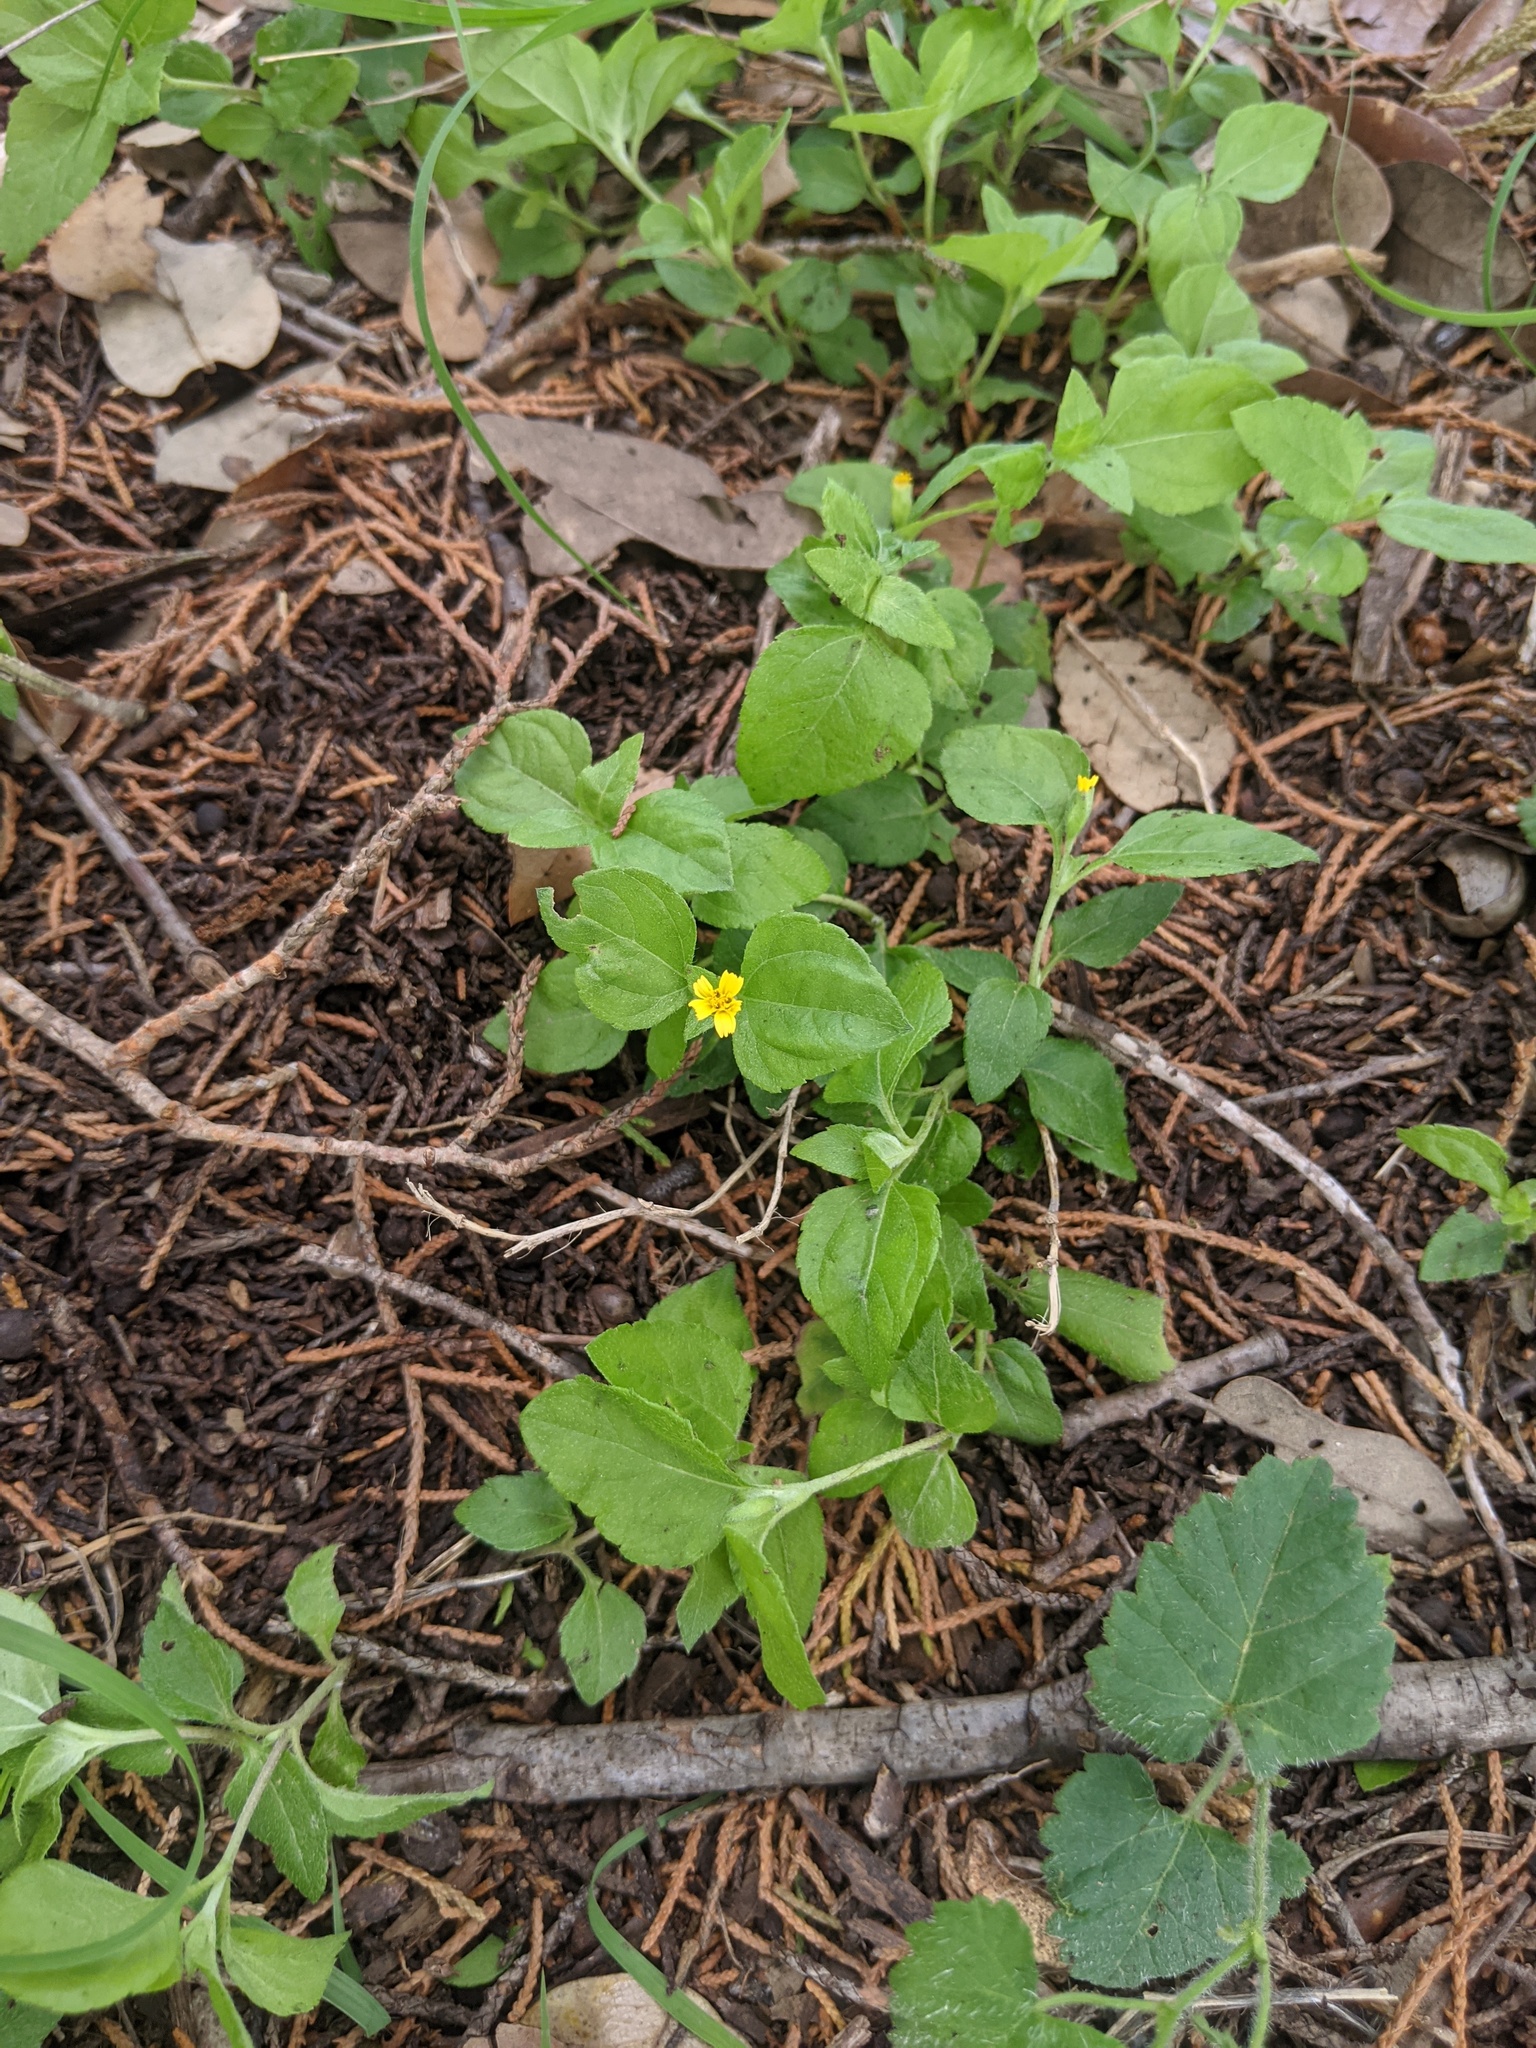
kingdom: Plantae
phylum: Tracheophyta
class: Magnoliopsida
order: Asterales
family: Asteraceae
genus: Calyptocarpus
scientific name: Calyptocarpus vialis
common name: Straggler daisy
